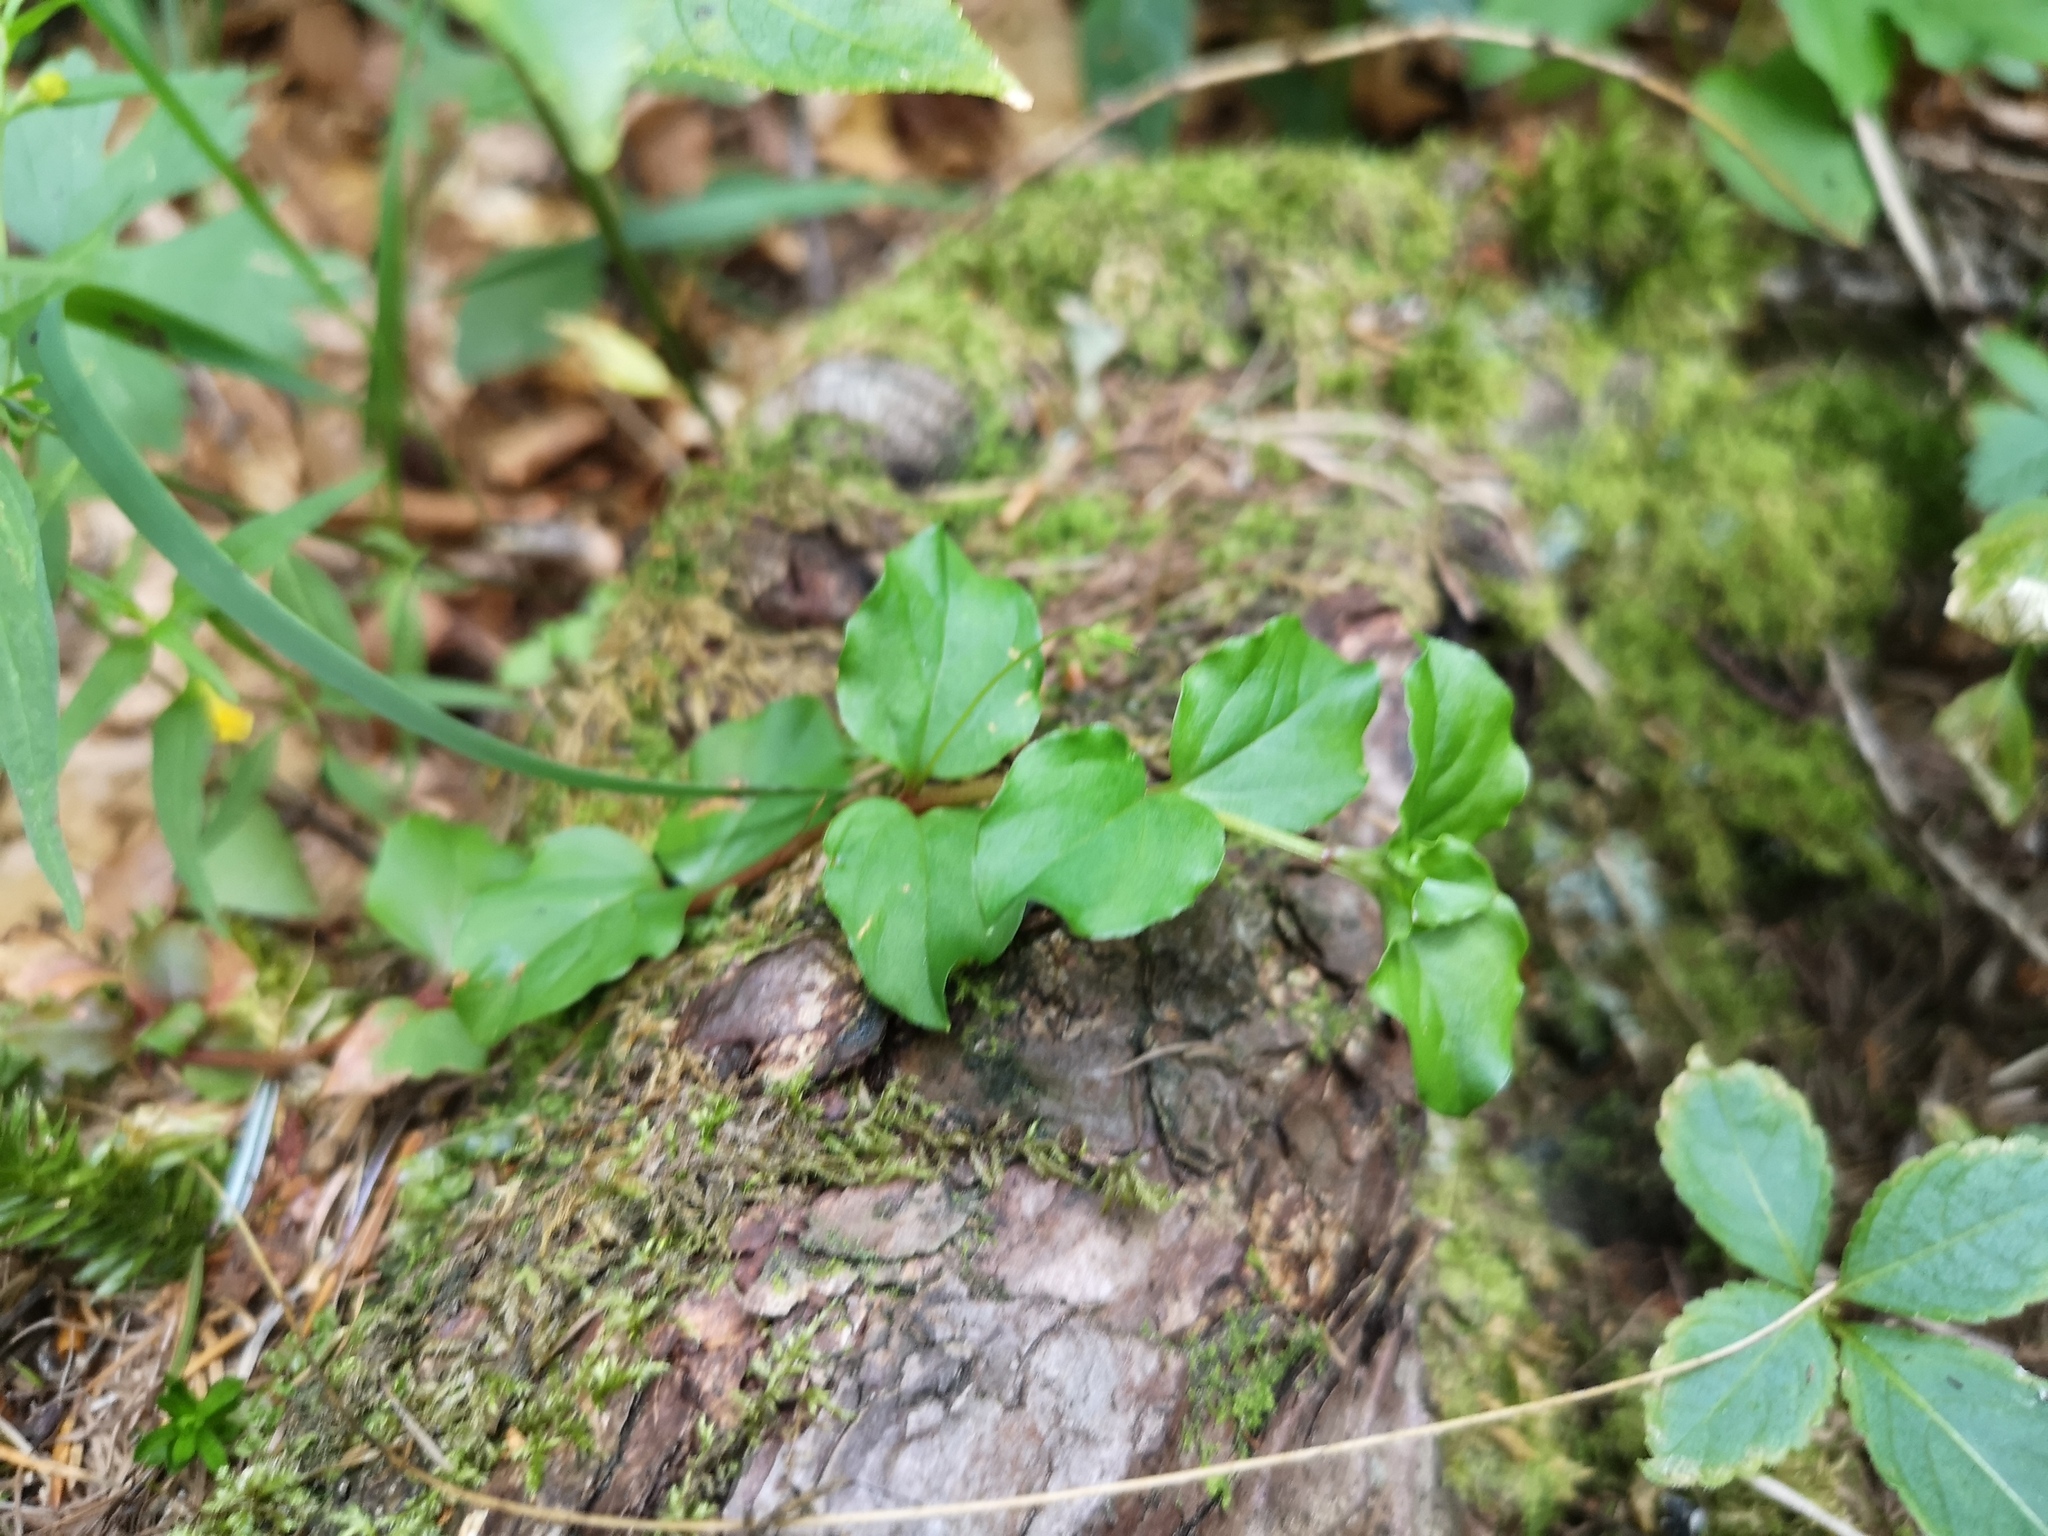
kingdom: Plantae
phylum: Tracheophyta
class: Magnoliopsida
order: Ericales
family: Primulaceae
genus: Lysimachia
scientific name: Lysimachia nemorum
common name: Yellow pimpernel
